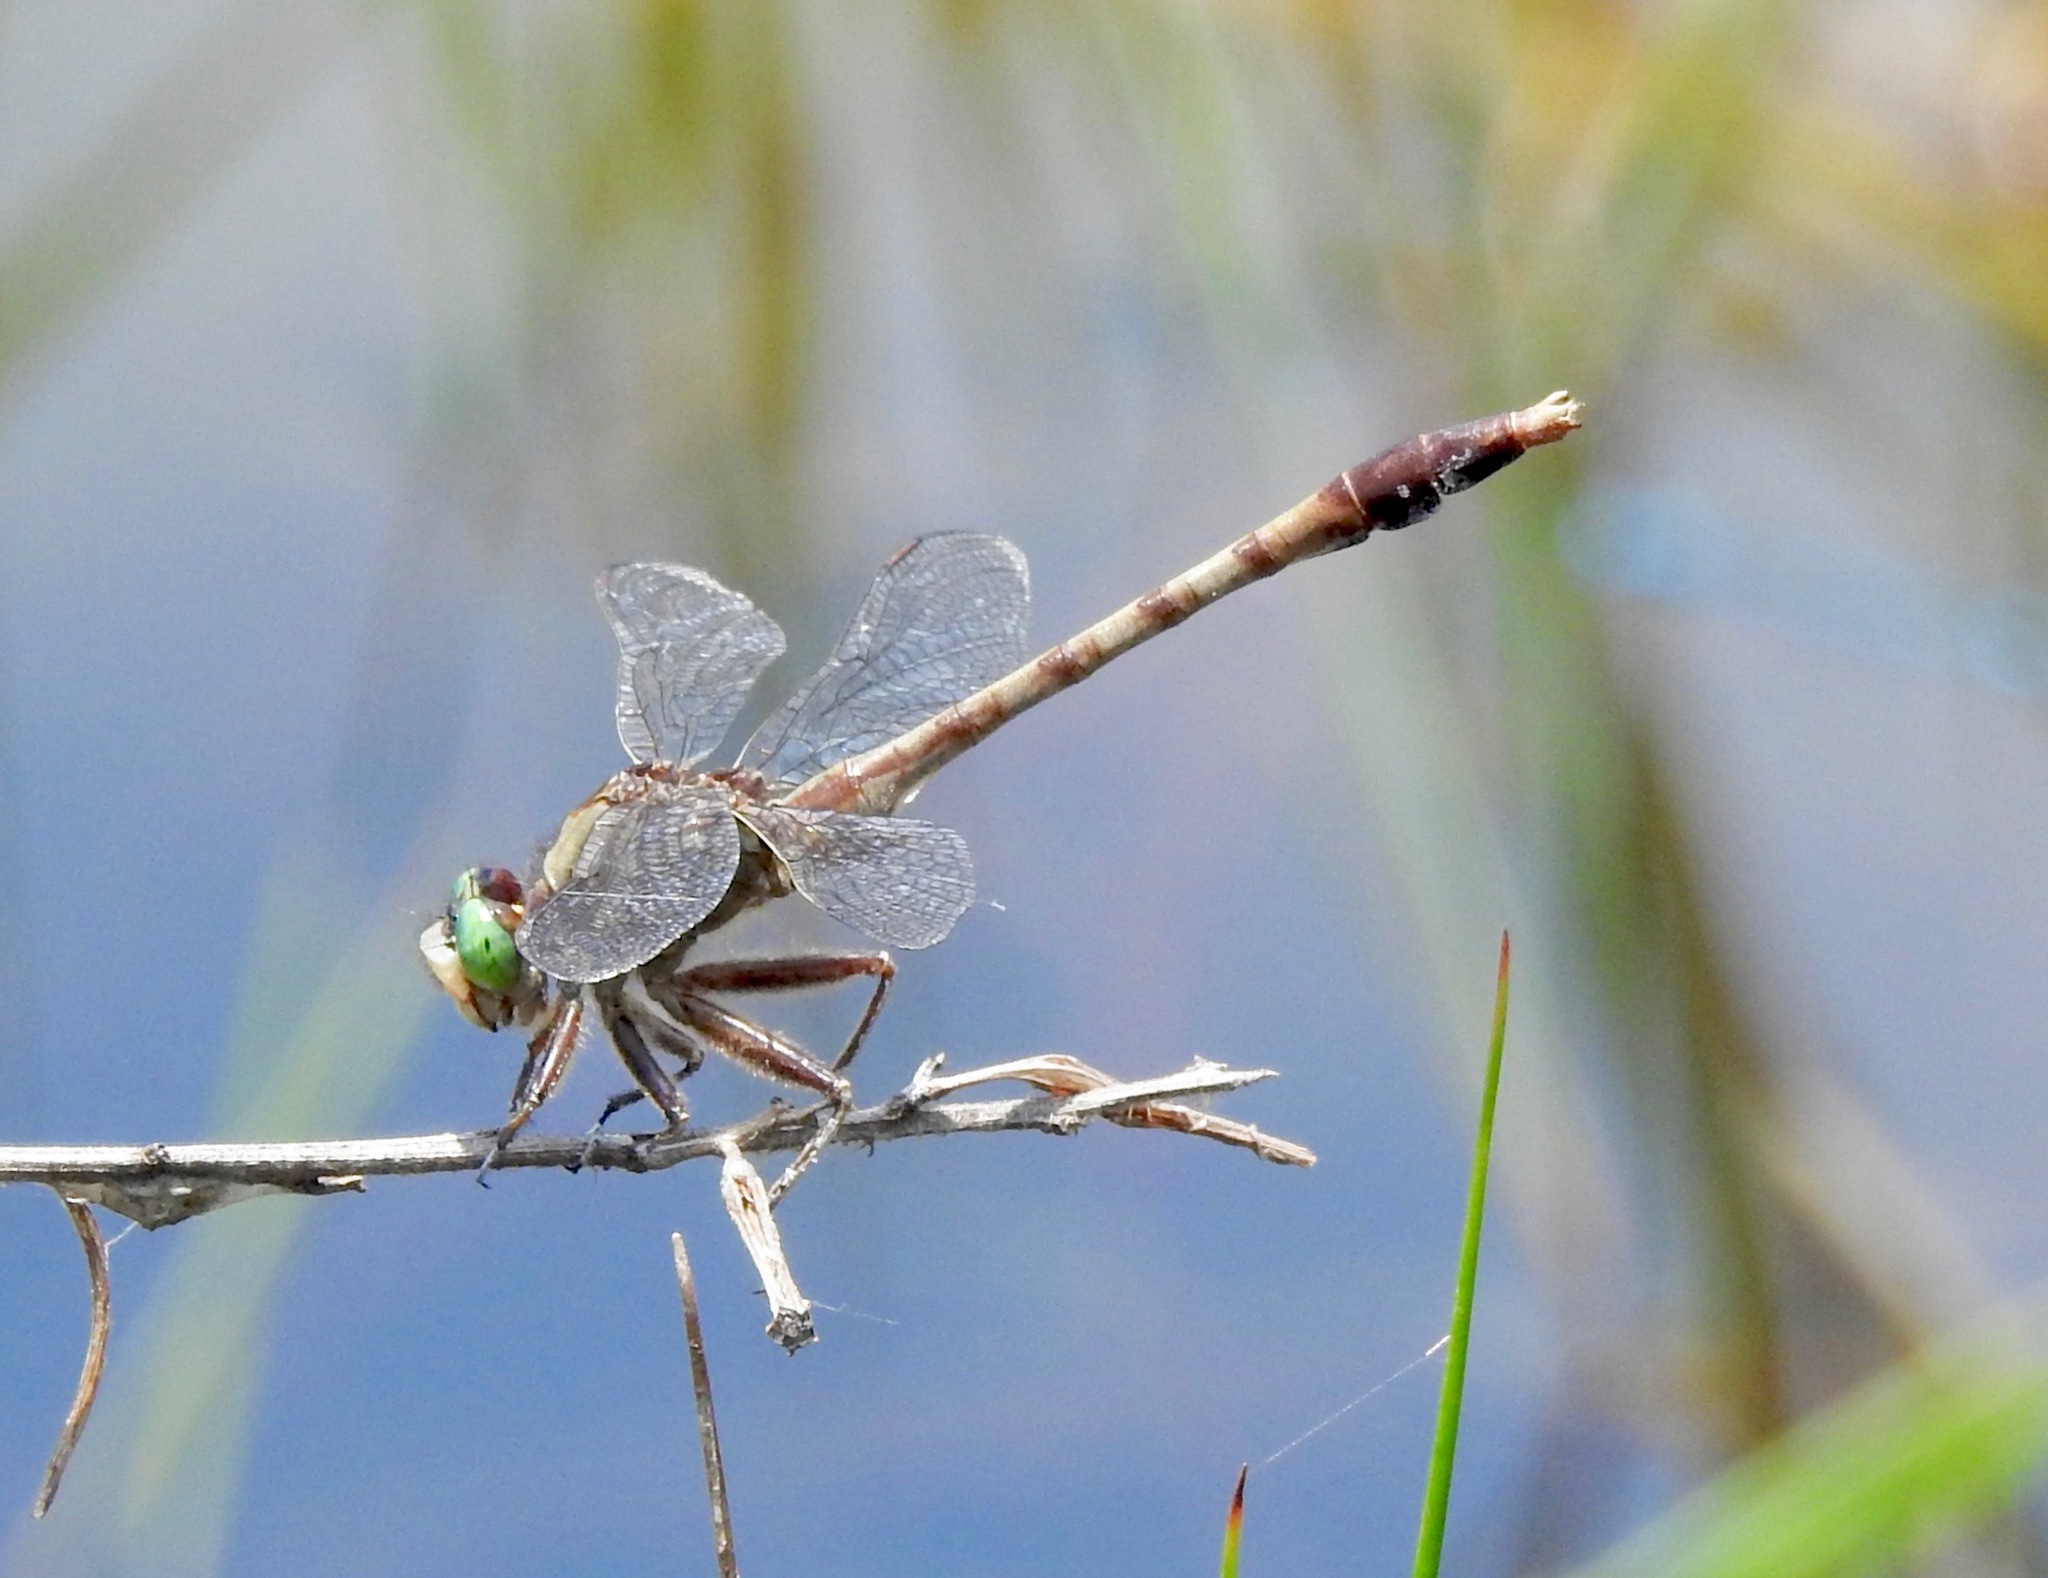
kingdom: Animalia
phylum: Arthropoda
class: Insecta
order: Odonata
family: Gomphidae
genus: Arigomphus
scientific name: Arigomphus pallidus
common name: Gray-green clubtail
